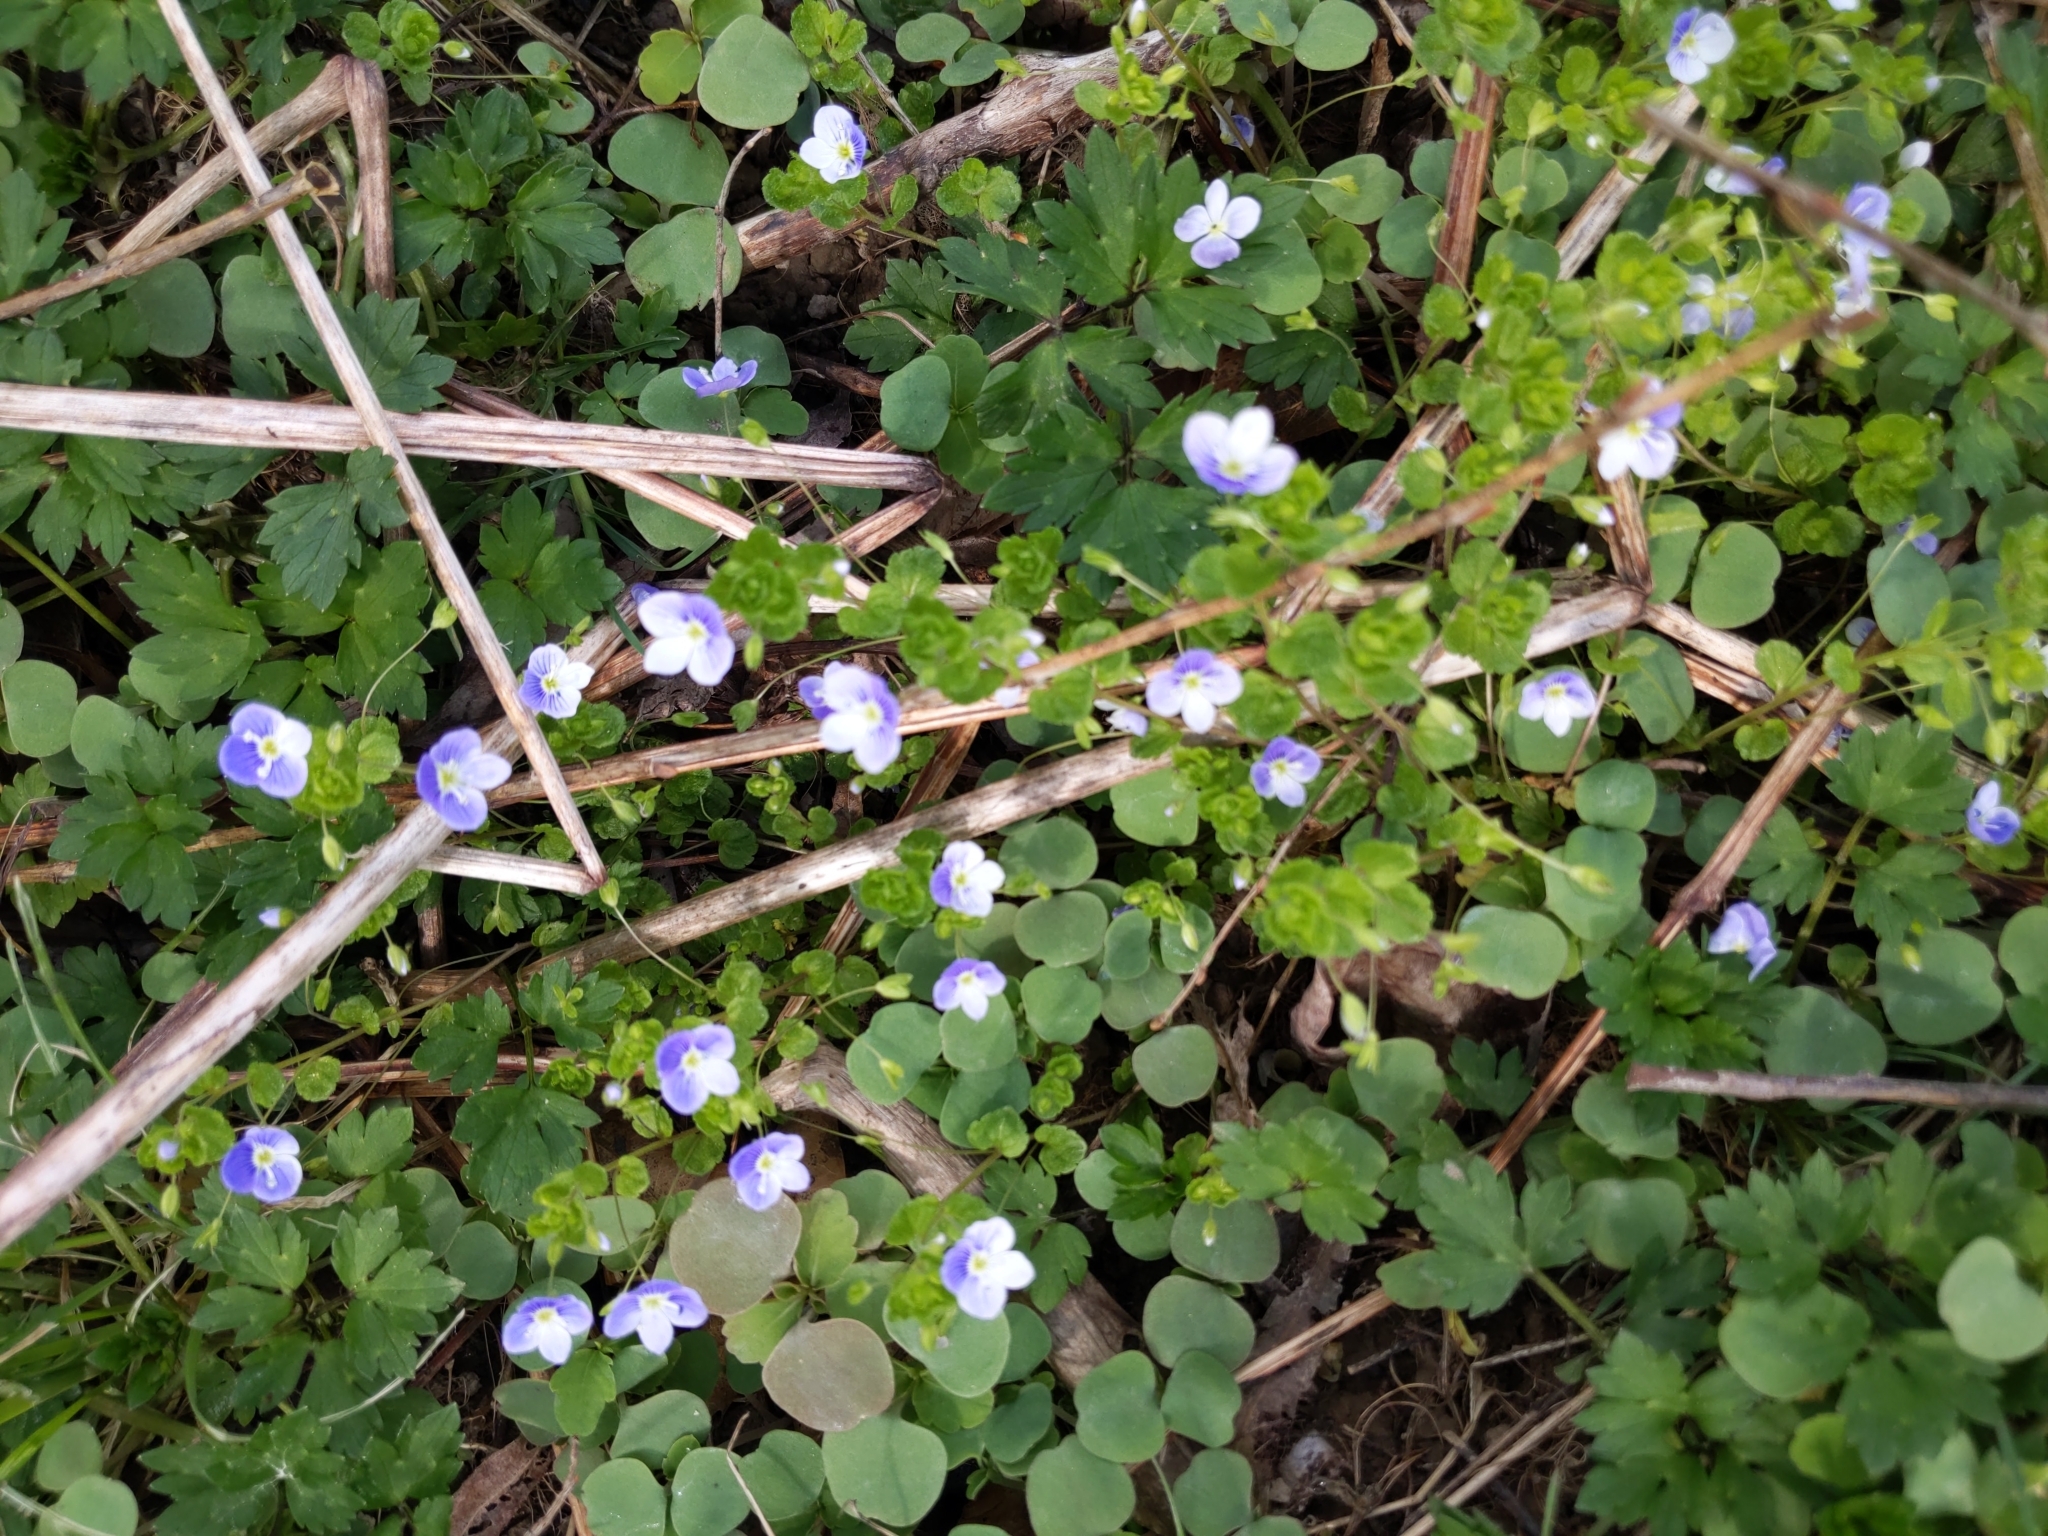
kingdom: Plantae
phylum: Tracheophyta
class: Magnoliopsida
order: Lamiales
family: Plantaginaceae
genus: Veronica
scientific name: Veronica filiformis
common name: Slender speedwell
